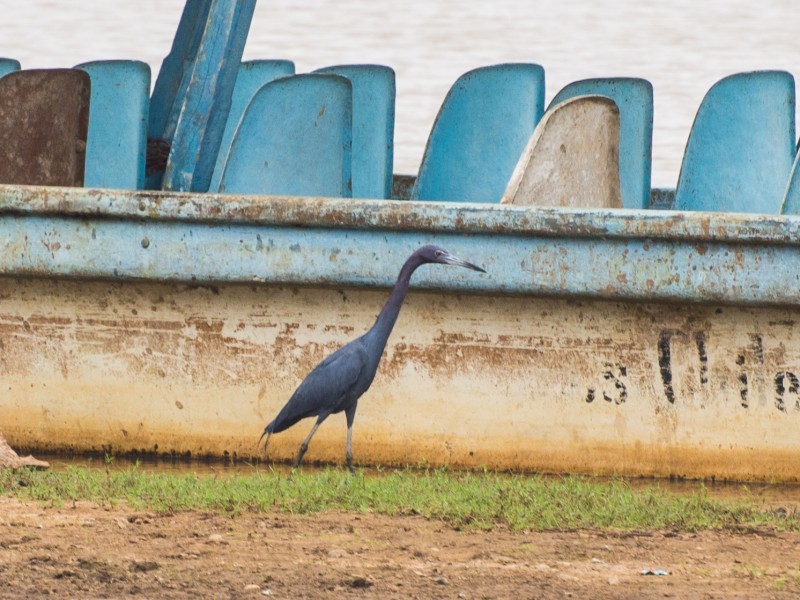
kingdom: Animalia
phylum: Chordata
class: Aves
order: Pelecaniformes
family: Ardeidae
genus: Egretta
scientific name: Egretta caerulea
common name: Little blue heron
